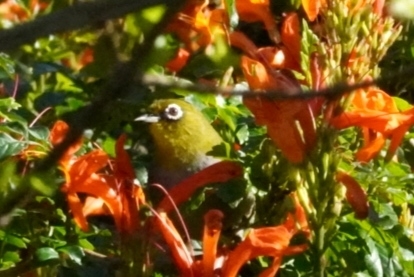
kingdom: Animalia
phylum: Chordata
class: Aves
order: Passeriformes
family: Zosteropidae
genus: Zosterops
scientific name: Zosterops virens
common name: Cape white-eye
